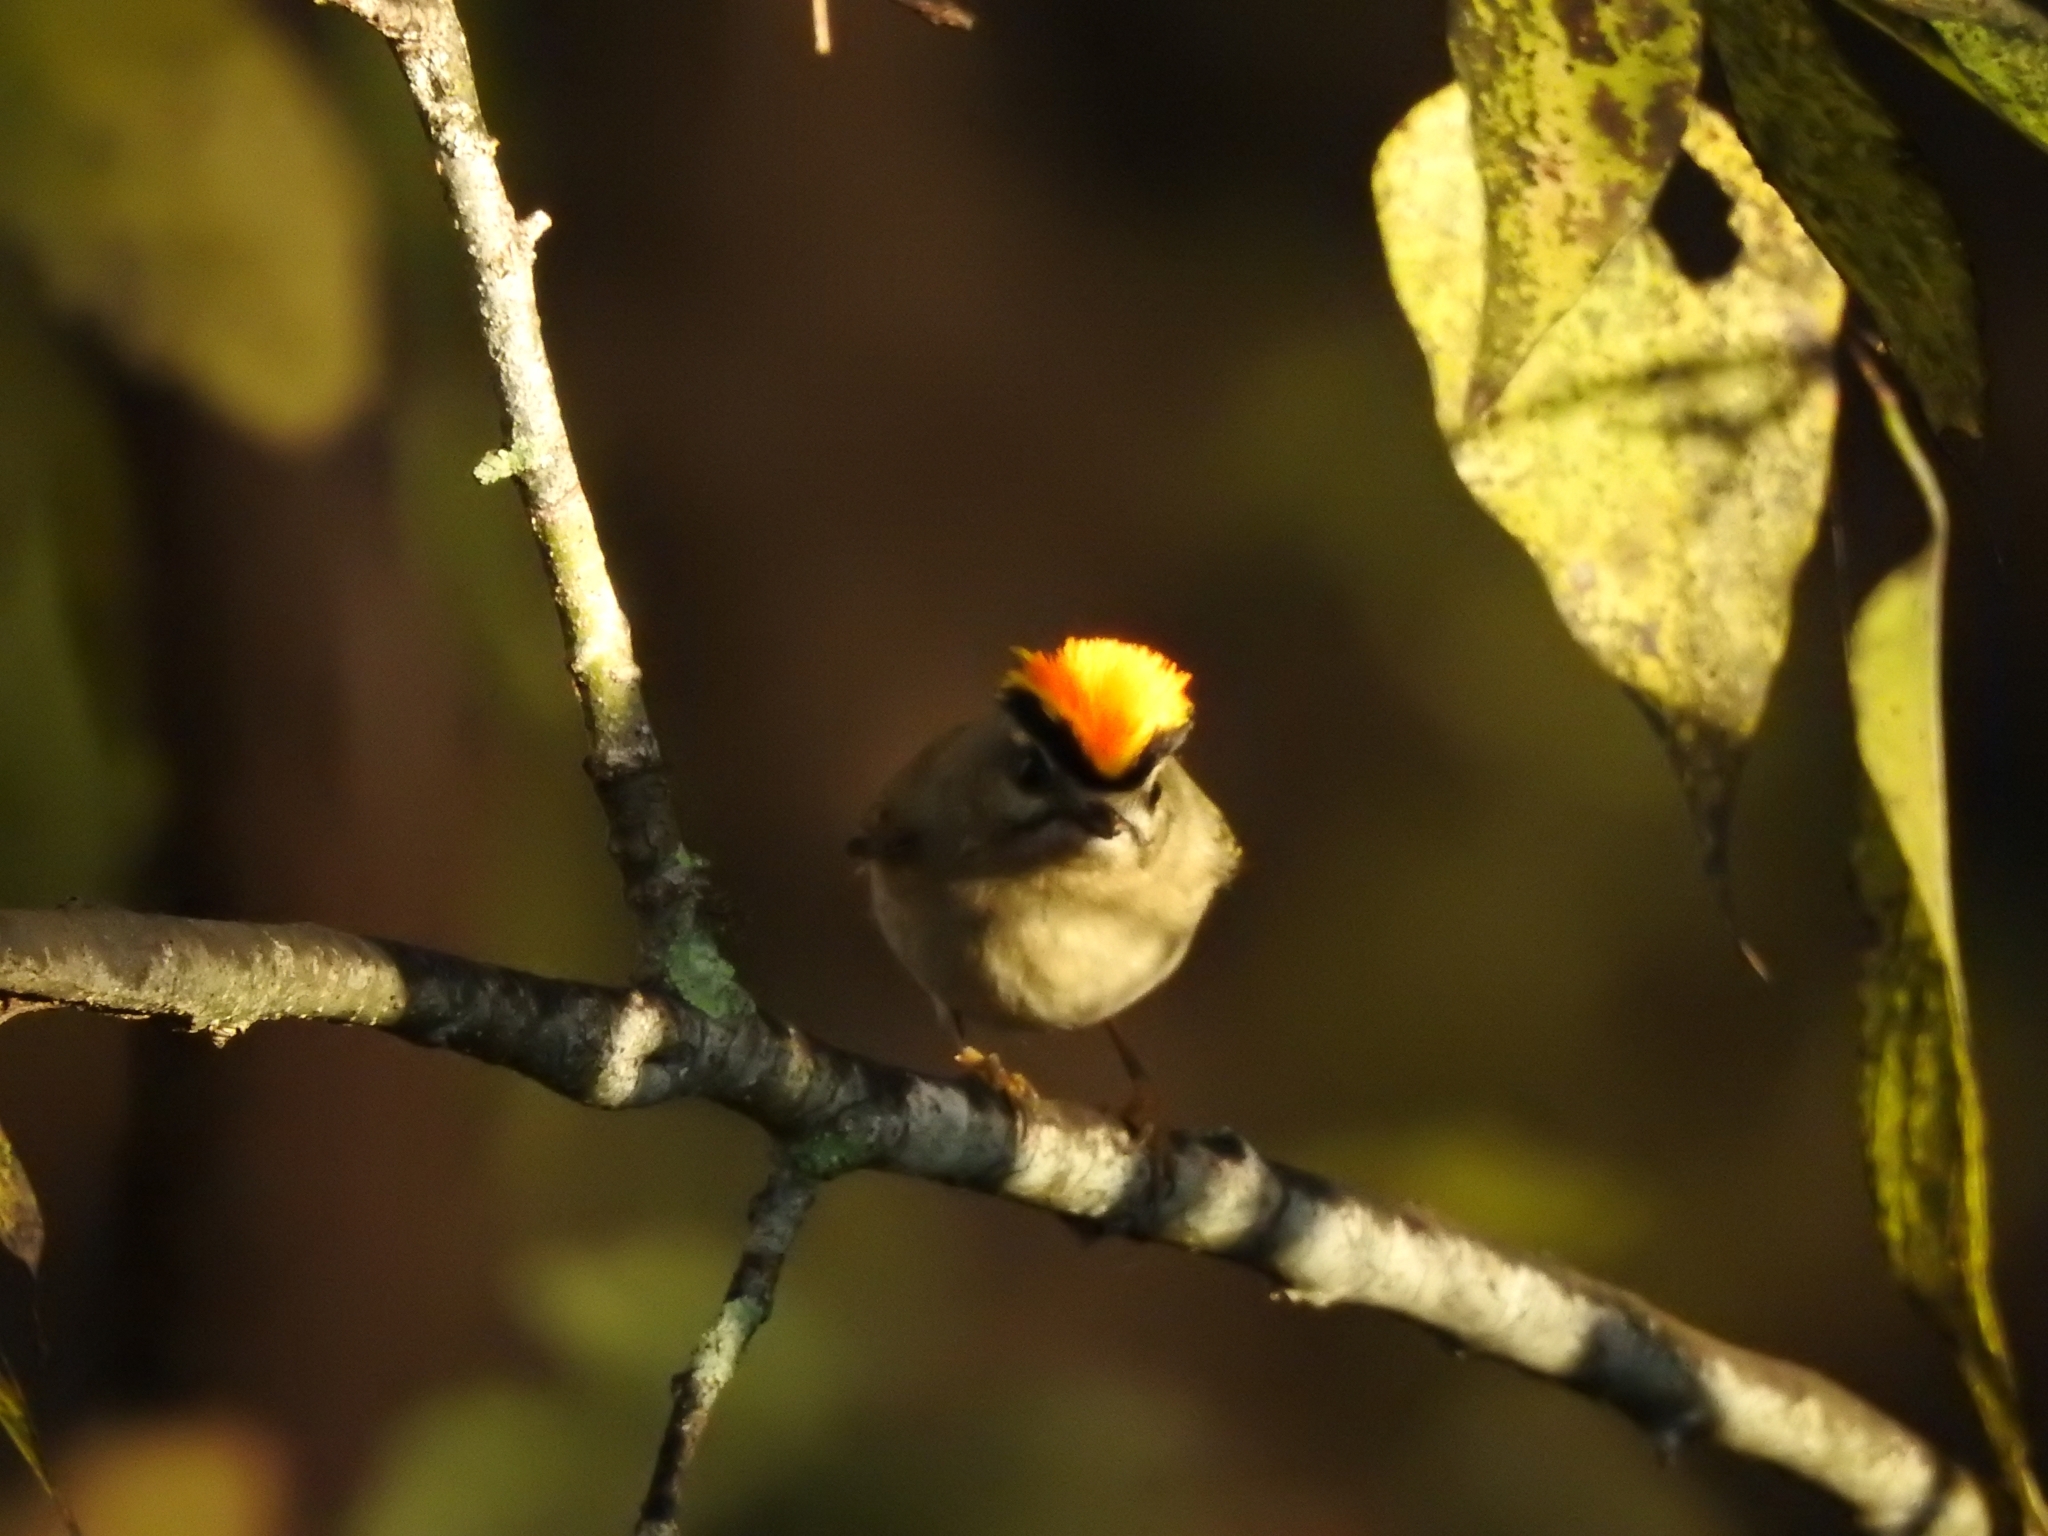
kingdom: Animalia
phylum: Chordata
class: Aves
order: Passeriformes
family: Regulidae
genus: Regulus
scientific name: Regulus satrapa
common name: Golden-crowned kinglet
